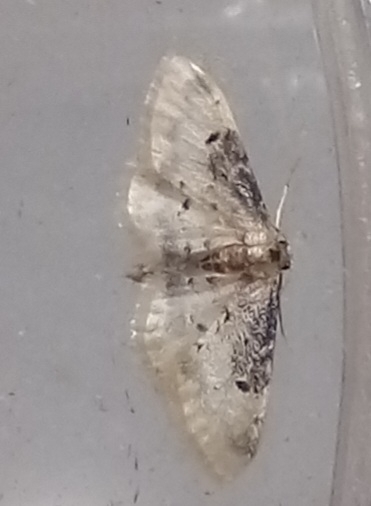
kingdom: Animalia
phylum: Arthropoda
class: Insecta
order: Lepidoptera
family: Geometridae
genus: Idaea
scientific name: Idaea filicata
